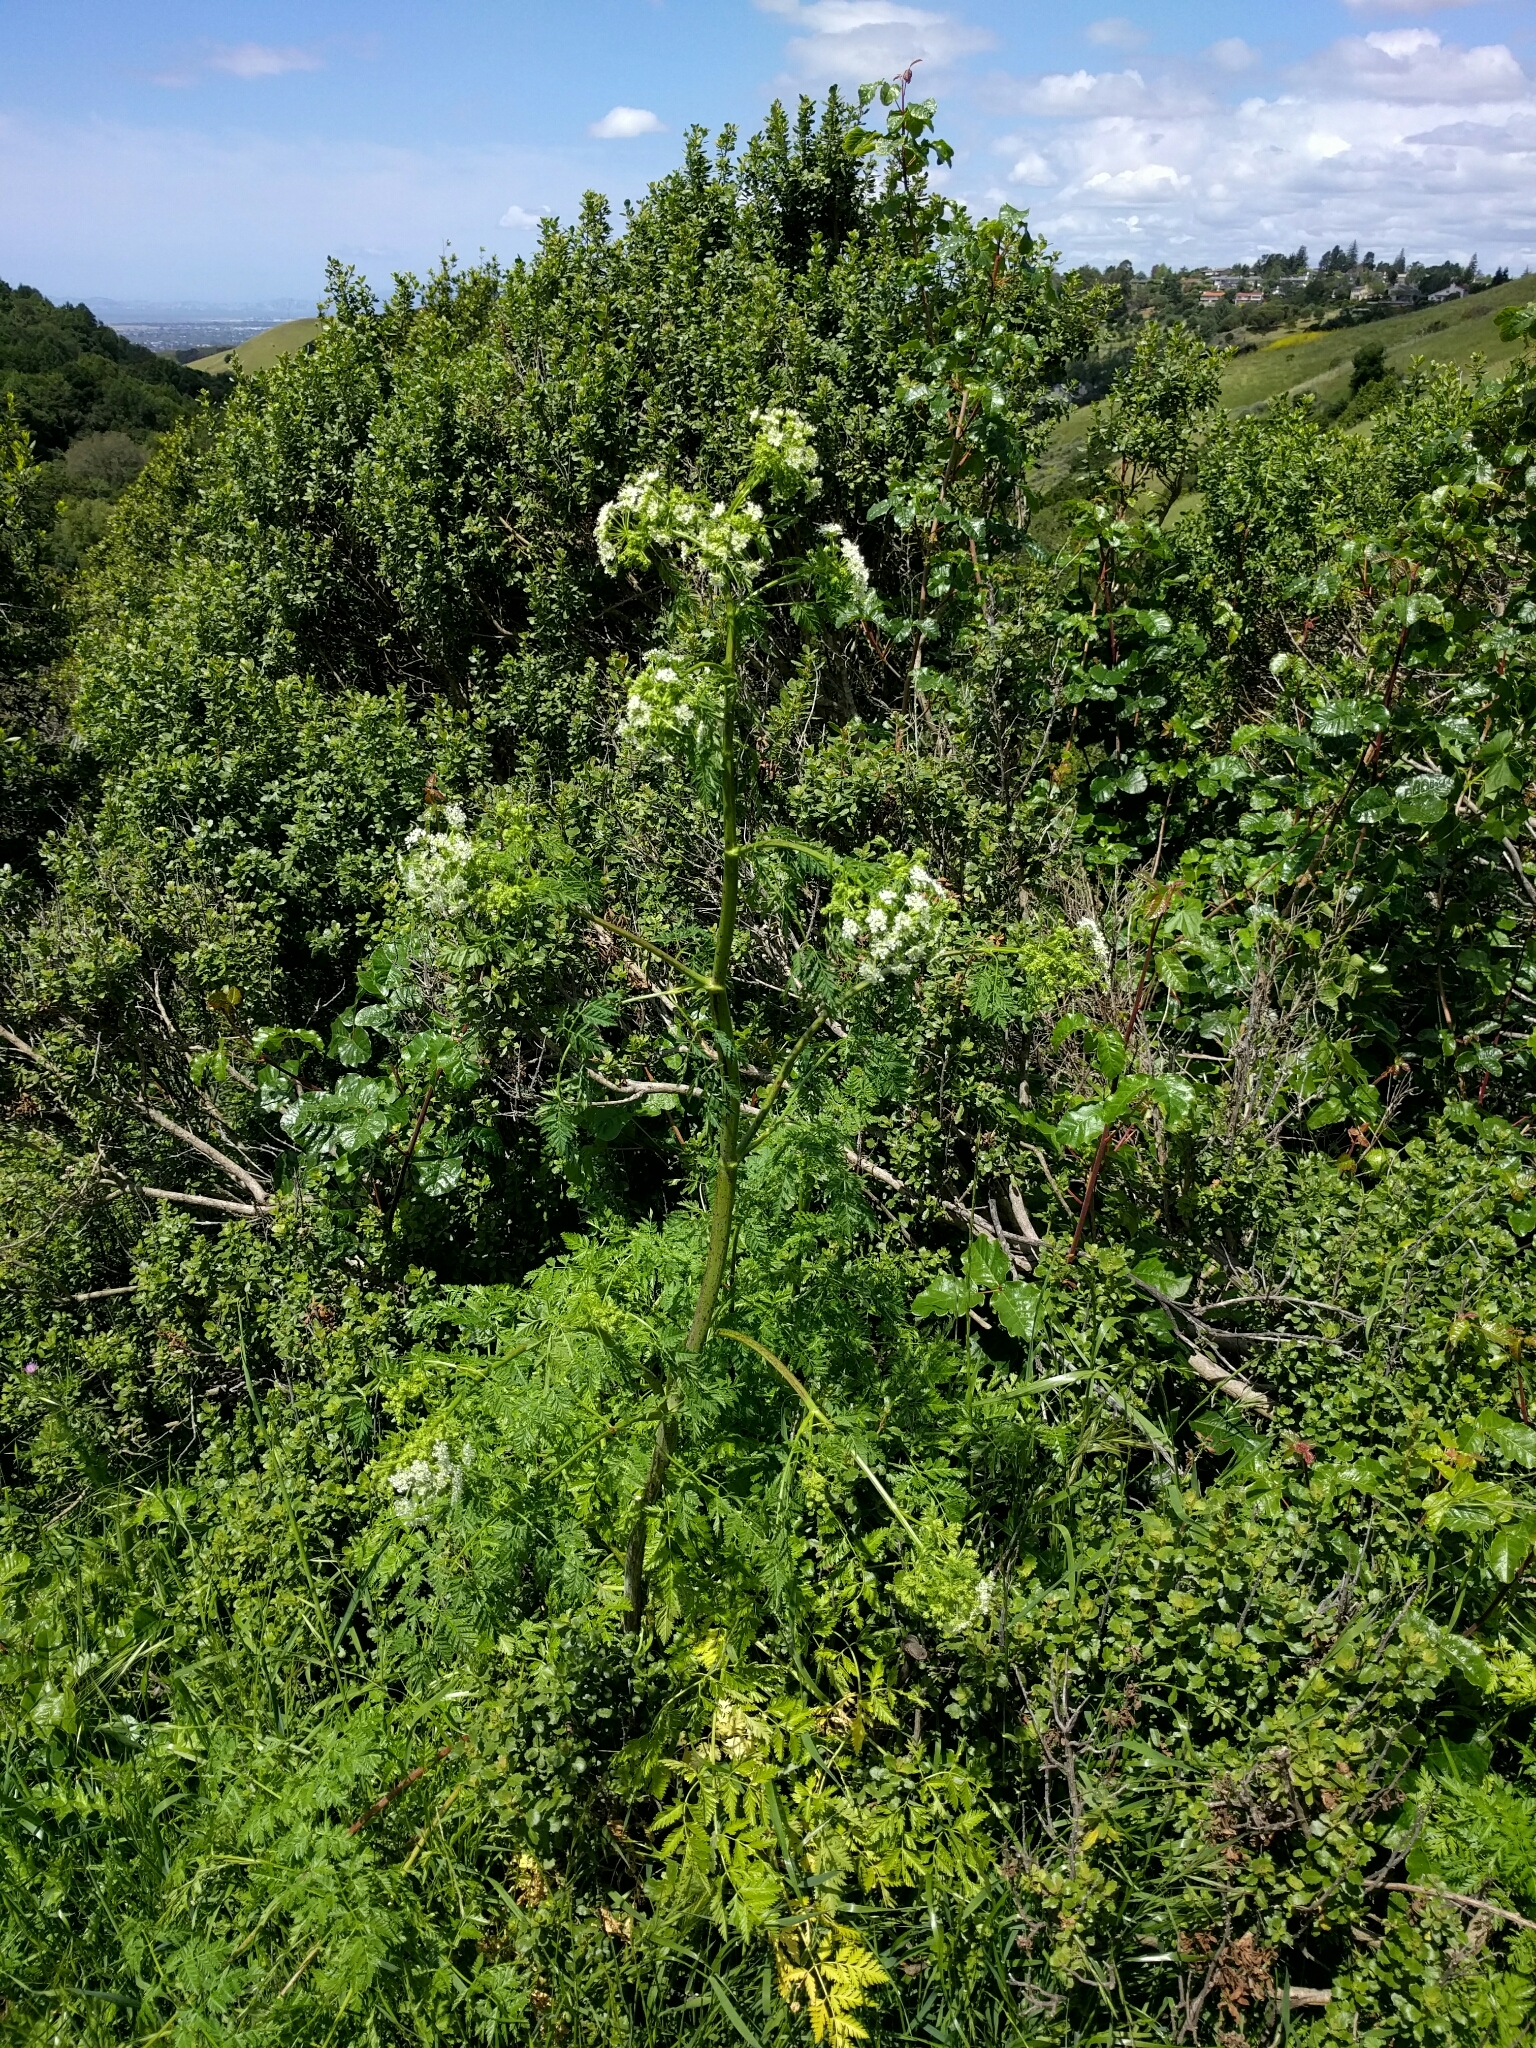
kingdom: Plantae
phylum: Tracheophyta
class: Magnoliopsida
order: Apiales
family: Apiaceae
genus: Conium
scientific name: Conium maculatum
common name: Hemlock
